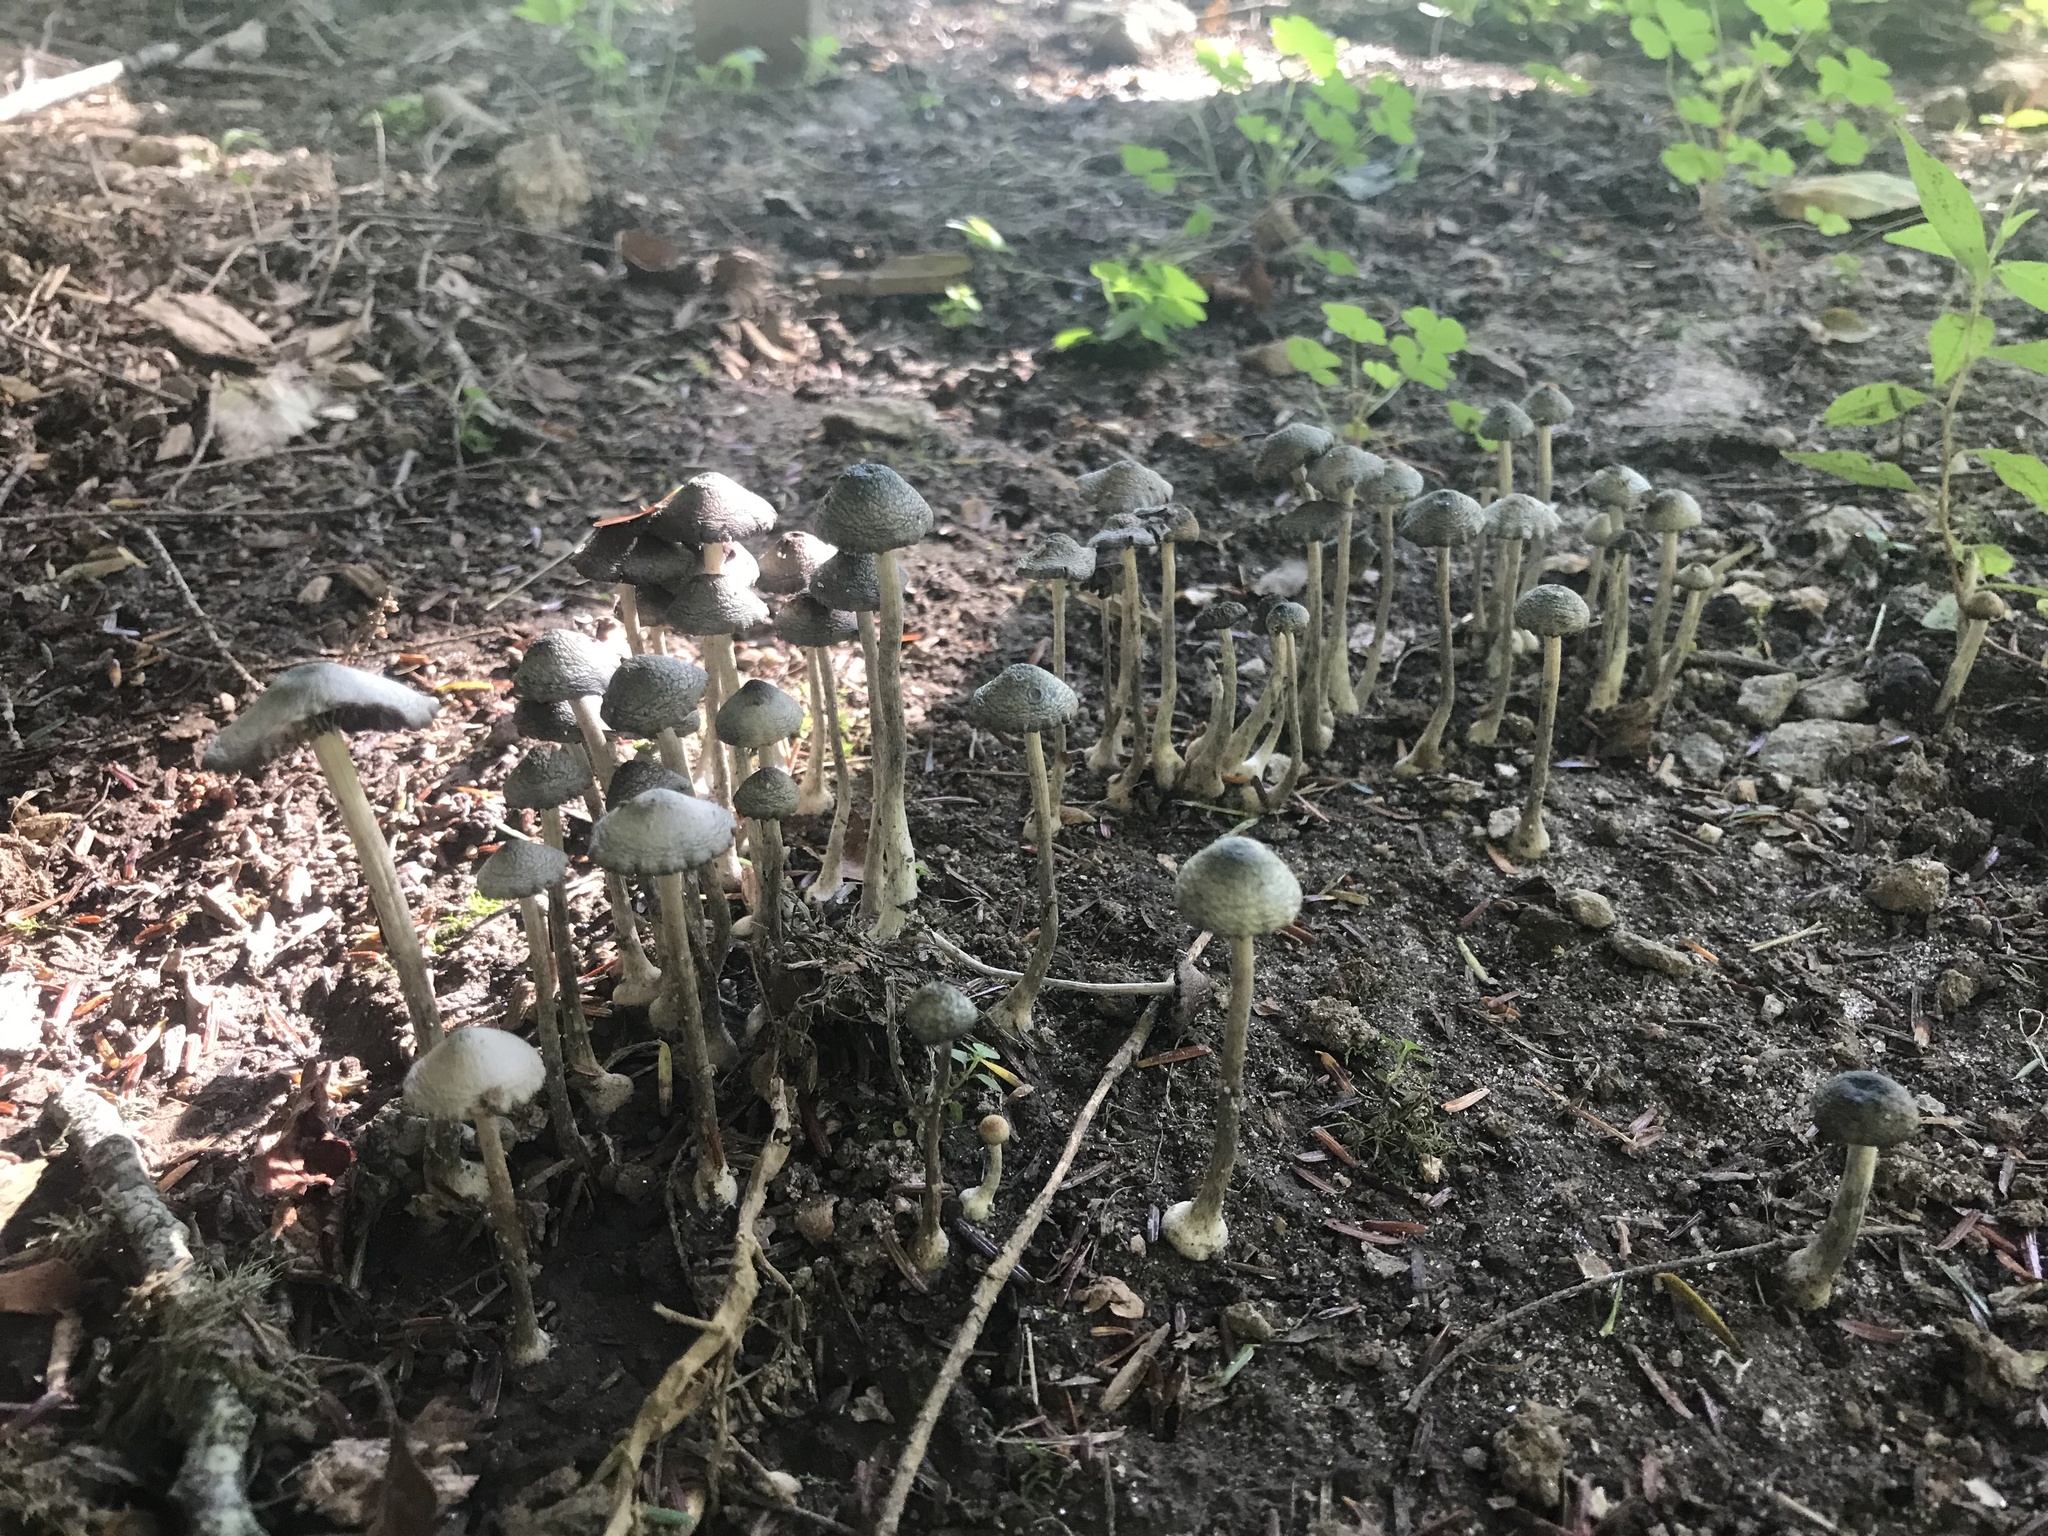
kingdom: Fungi
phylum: Basidiomycota
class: Agaricomycetes
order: Agaricales
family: Bolbitiaceae
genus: Panaeolus
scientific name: Panaeolus cyanescens
